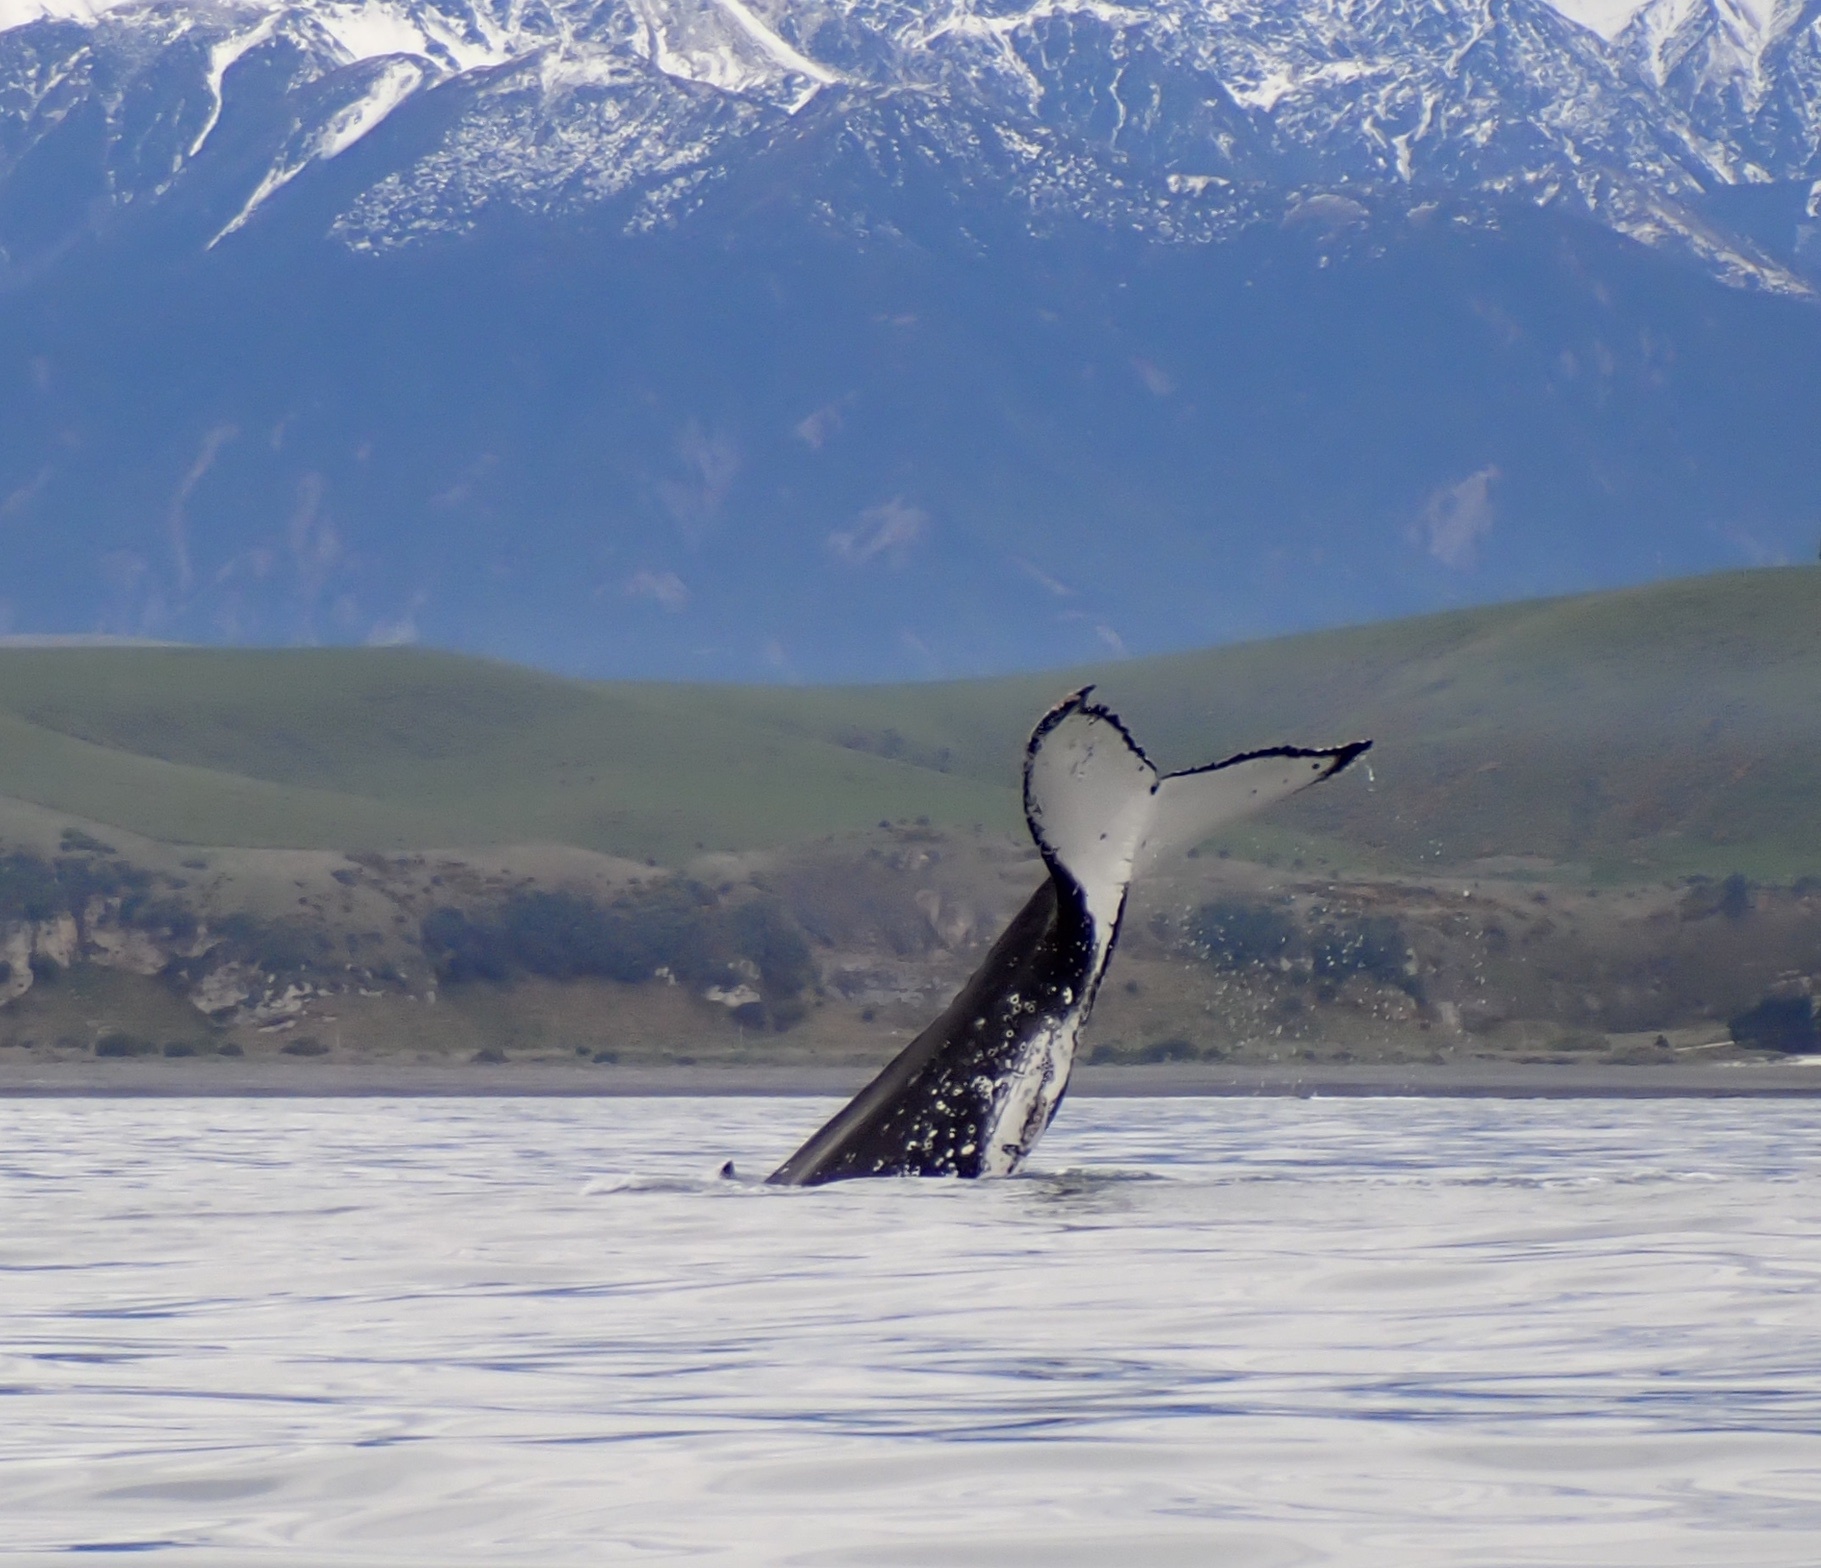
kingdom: Animalia
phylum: Chordata
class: Mammalia
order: Cetacea
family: Balaenopteridae
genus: Megaptera
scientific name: Megaptera novaeangliae
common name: Humpback whale
